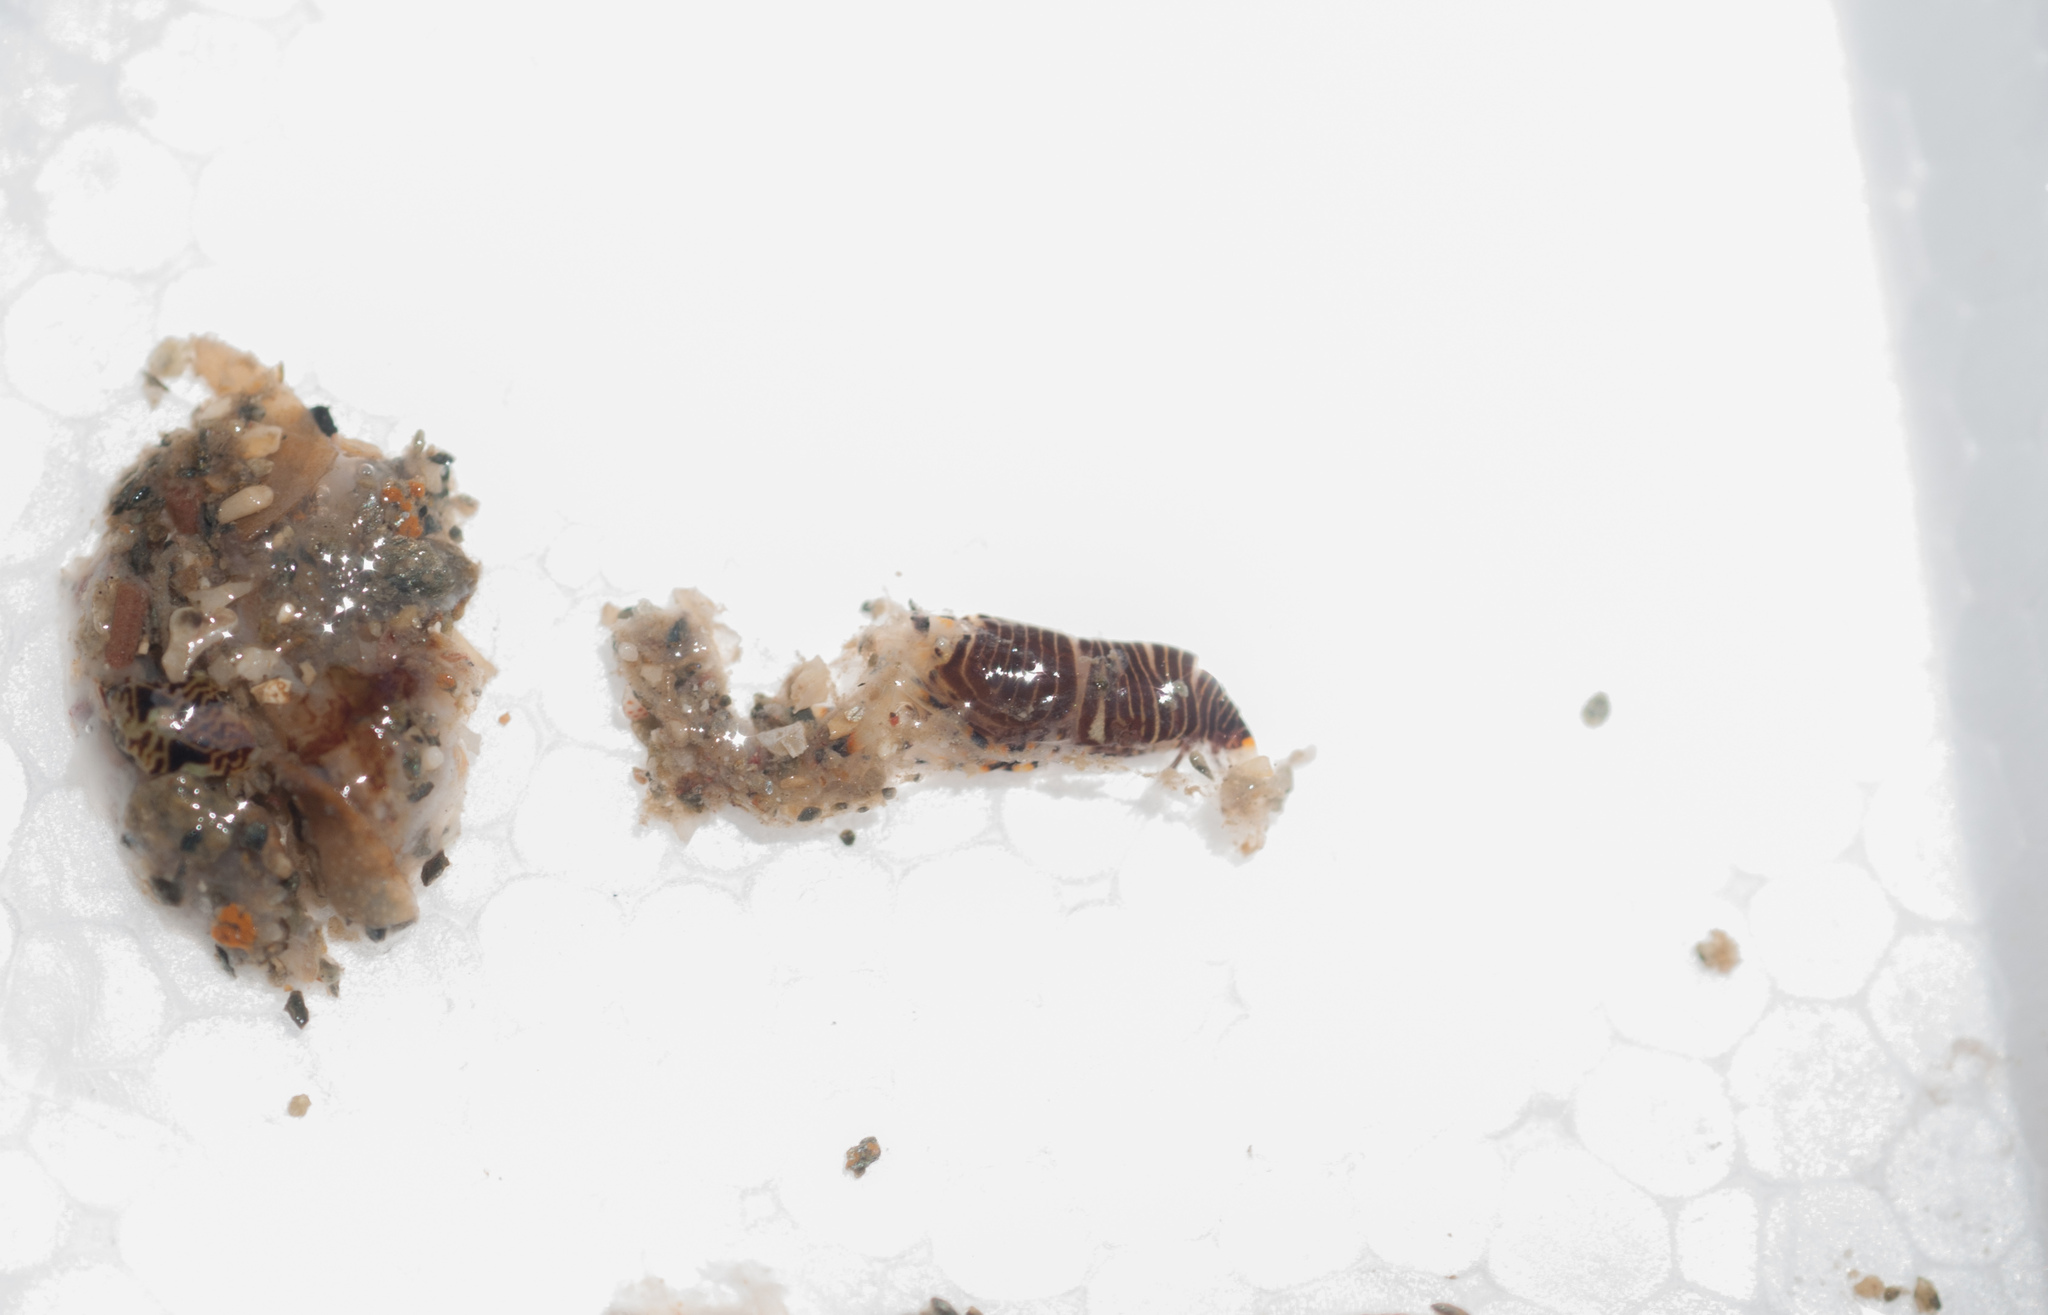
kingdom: Animalia
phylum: Arthropoda
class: Malacostraca
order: Decapoda
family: Palaemonidae
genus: Gnathophyllum
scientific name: Gnathophyllum americanum
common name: Bumblebee shrimp
